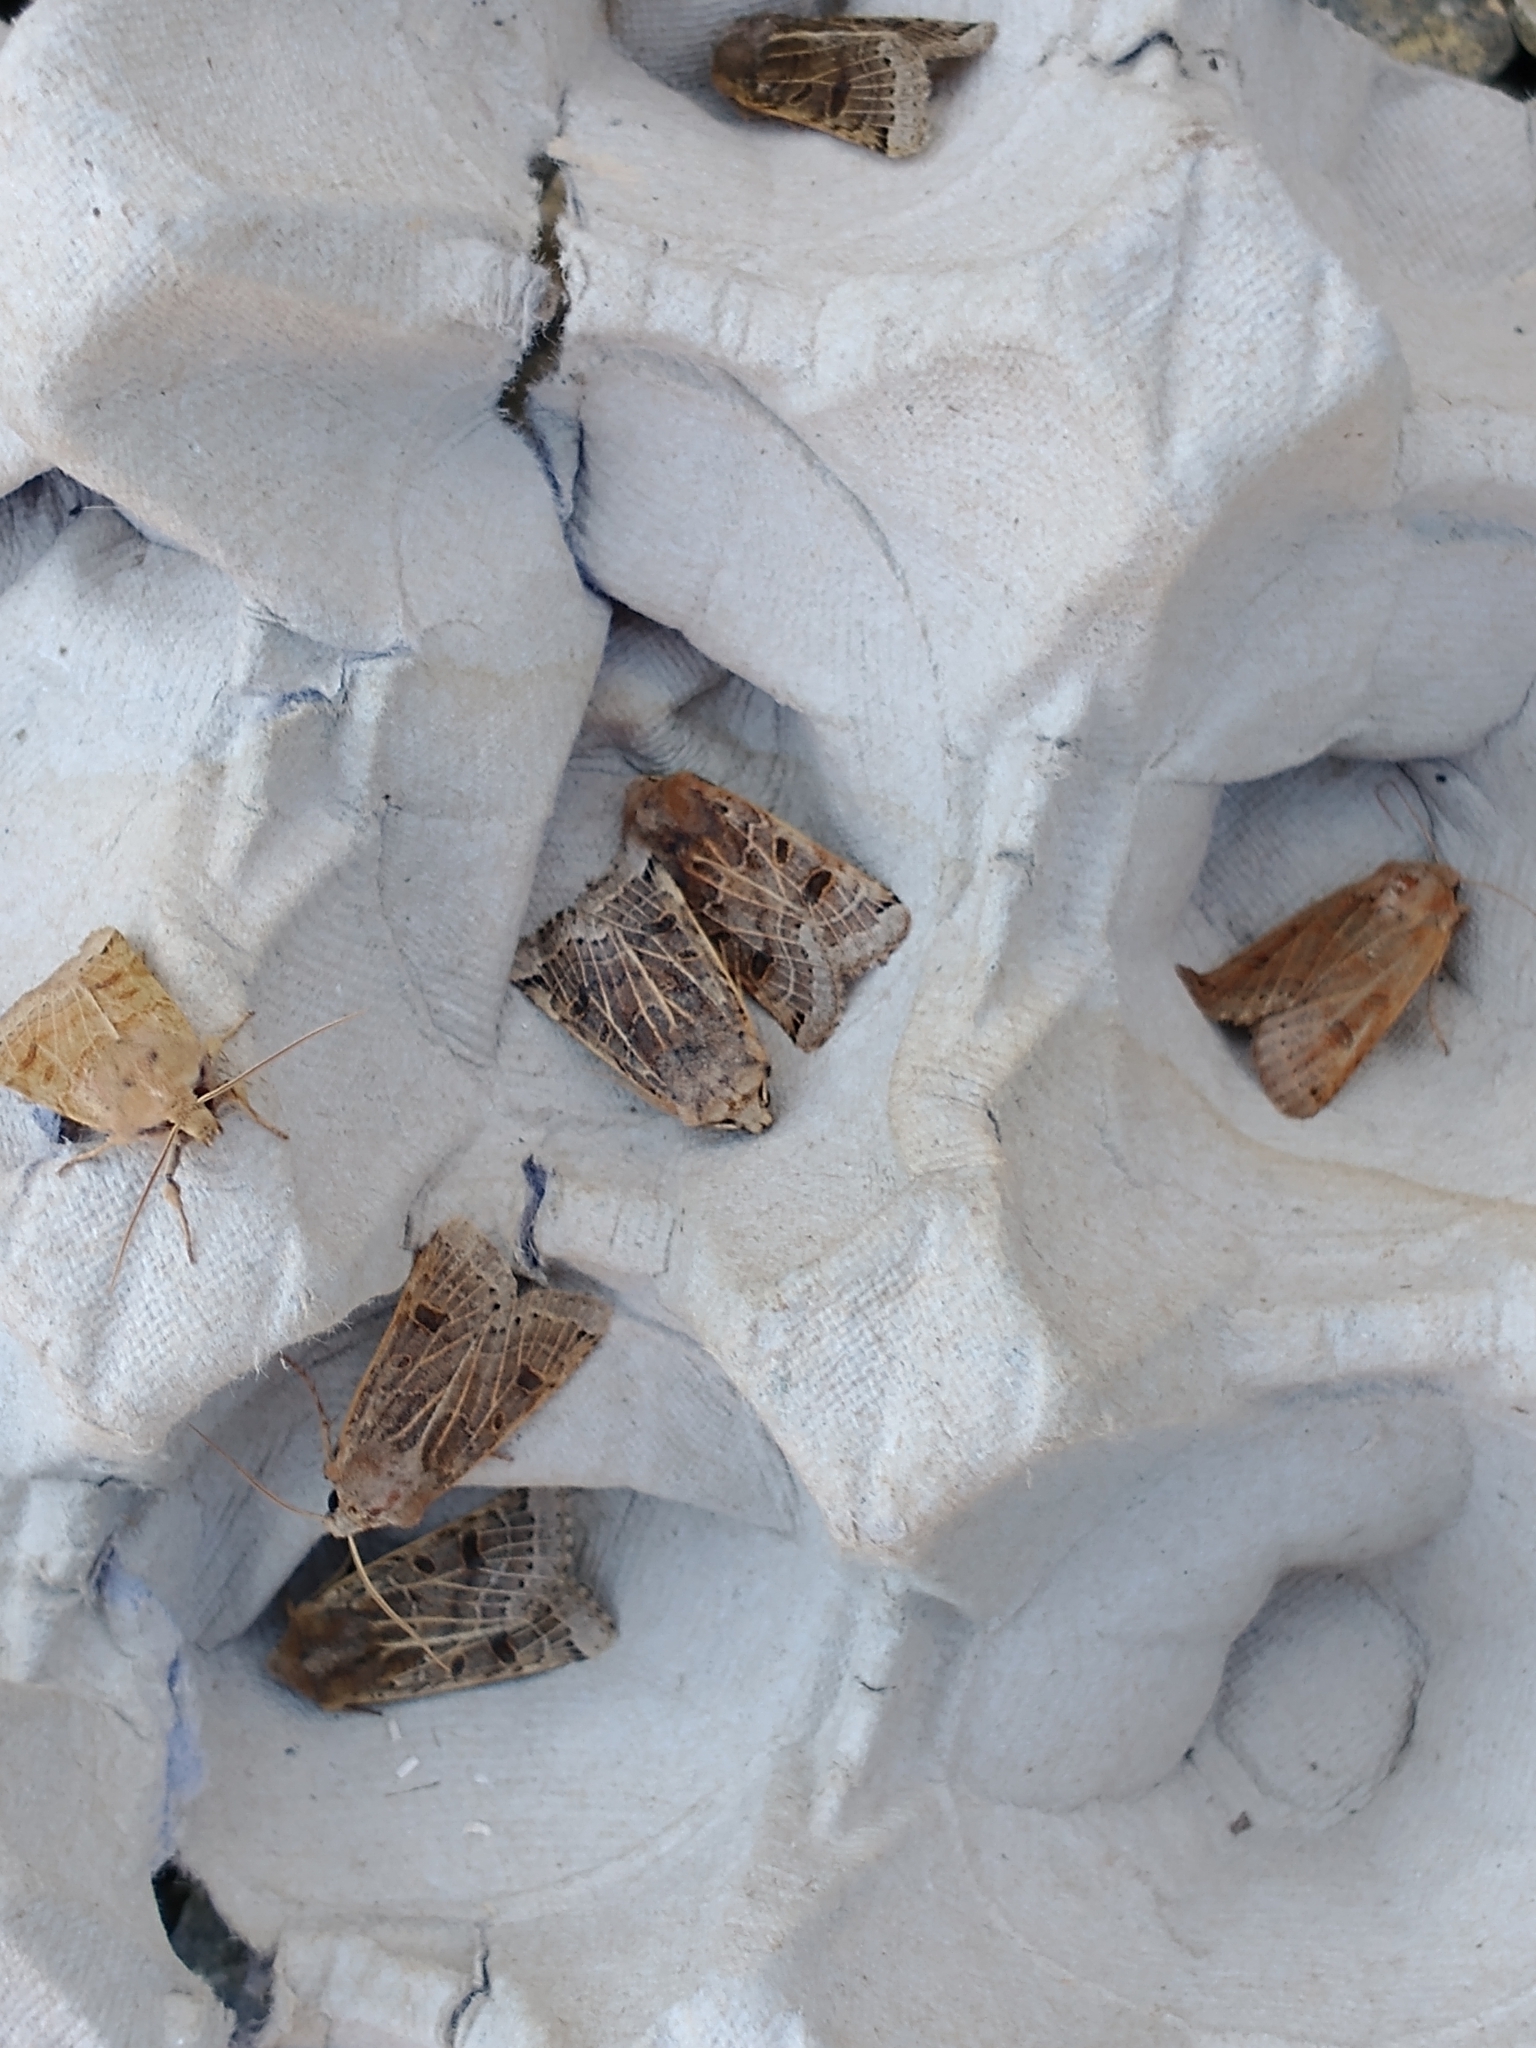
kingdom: Animalia
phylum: Arthropoda
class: Insecta
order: Lepidoptera
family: Noctuidae
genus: Agrochola
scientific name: Agrochola lunosa
